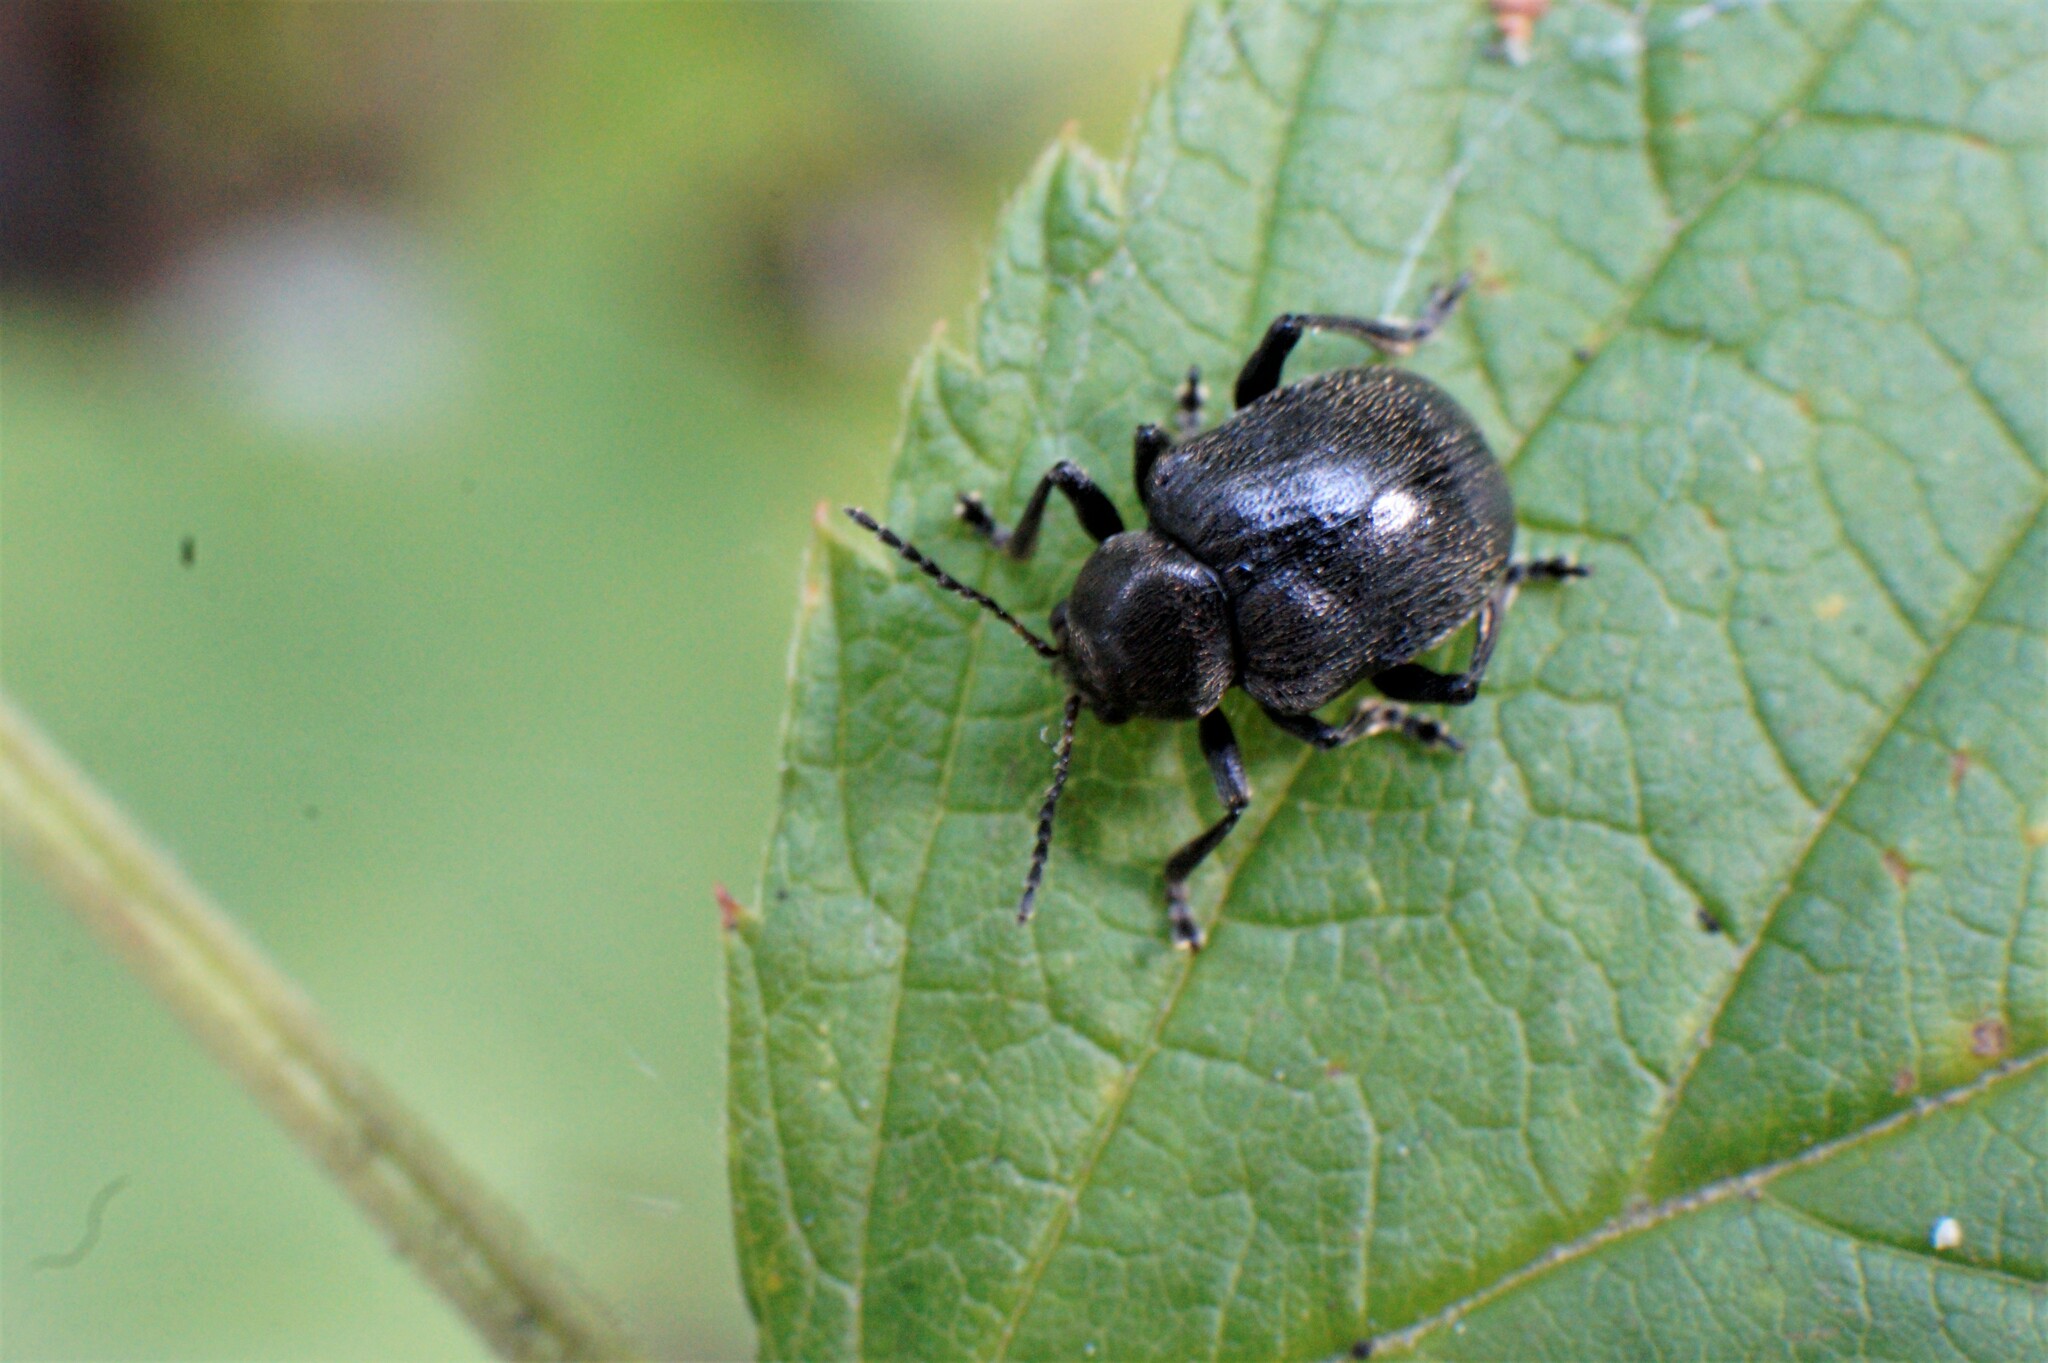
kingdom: Animalia
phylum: Arthropoda
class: Insecta
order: Coleoptera
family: Chrysomelidae
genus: Bromius
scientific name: Bromius obscurus
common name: Western grape rootworm
